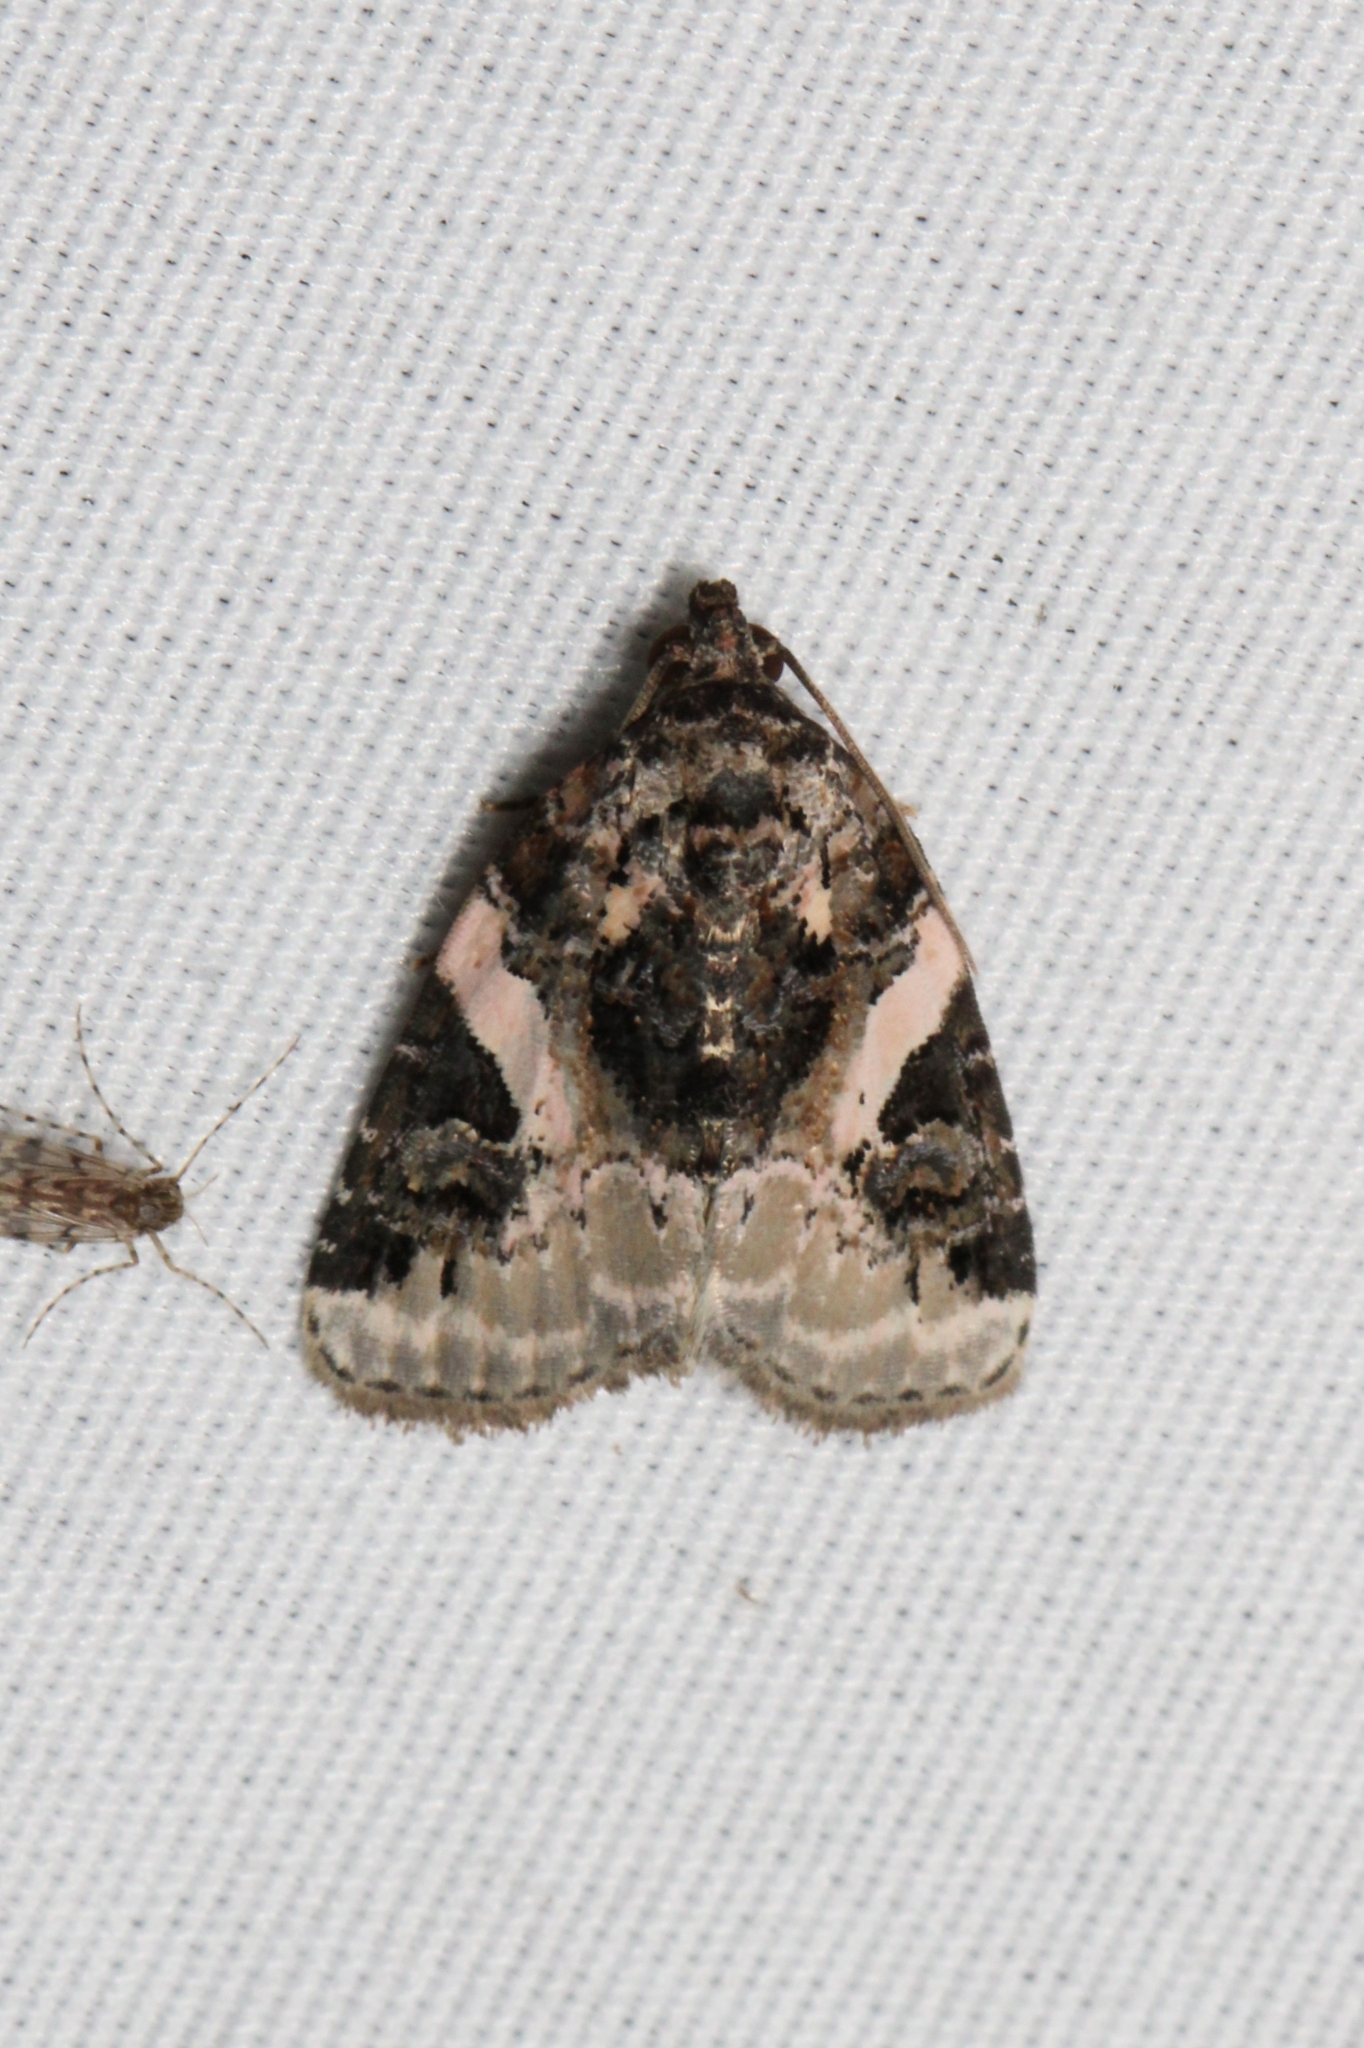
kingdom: Animalia
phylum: Arthropoda
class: Insecta
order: Lepidoptera
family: Noctuidae
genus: Pseudeustrotia
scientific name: Pseudeustrotia carneola
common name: Pink-barred lithacodia moth
